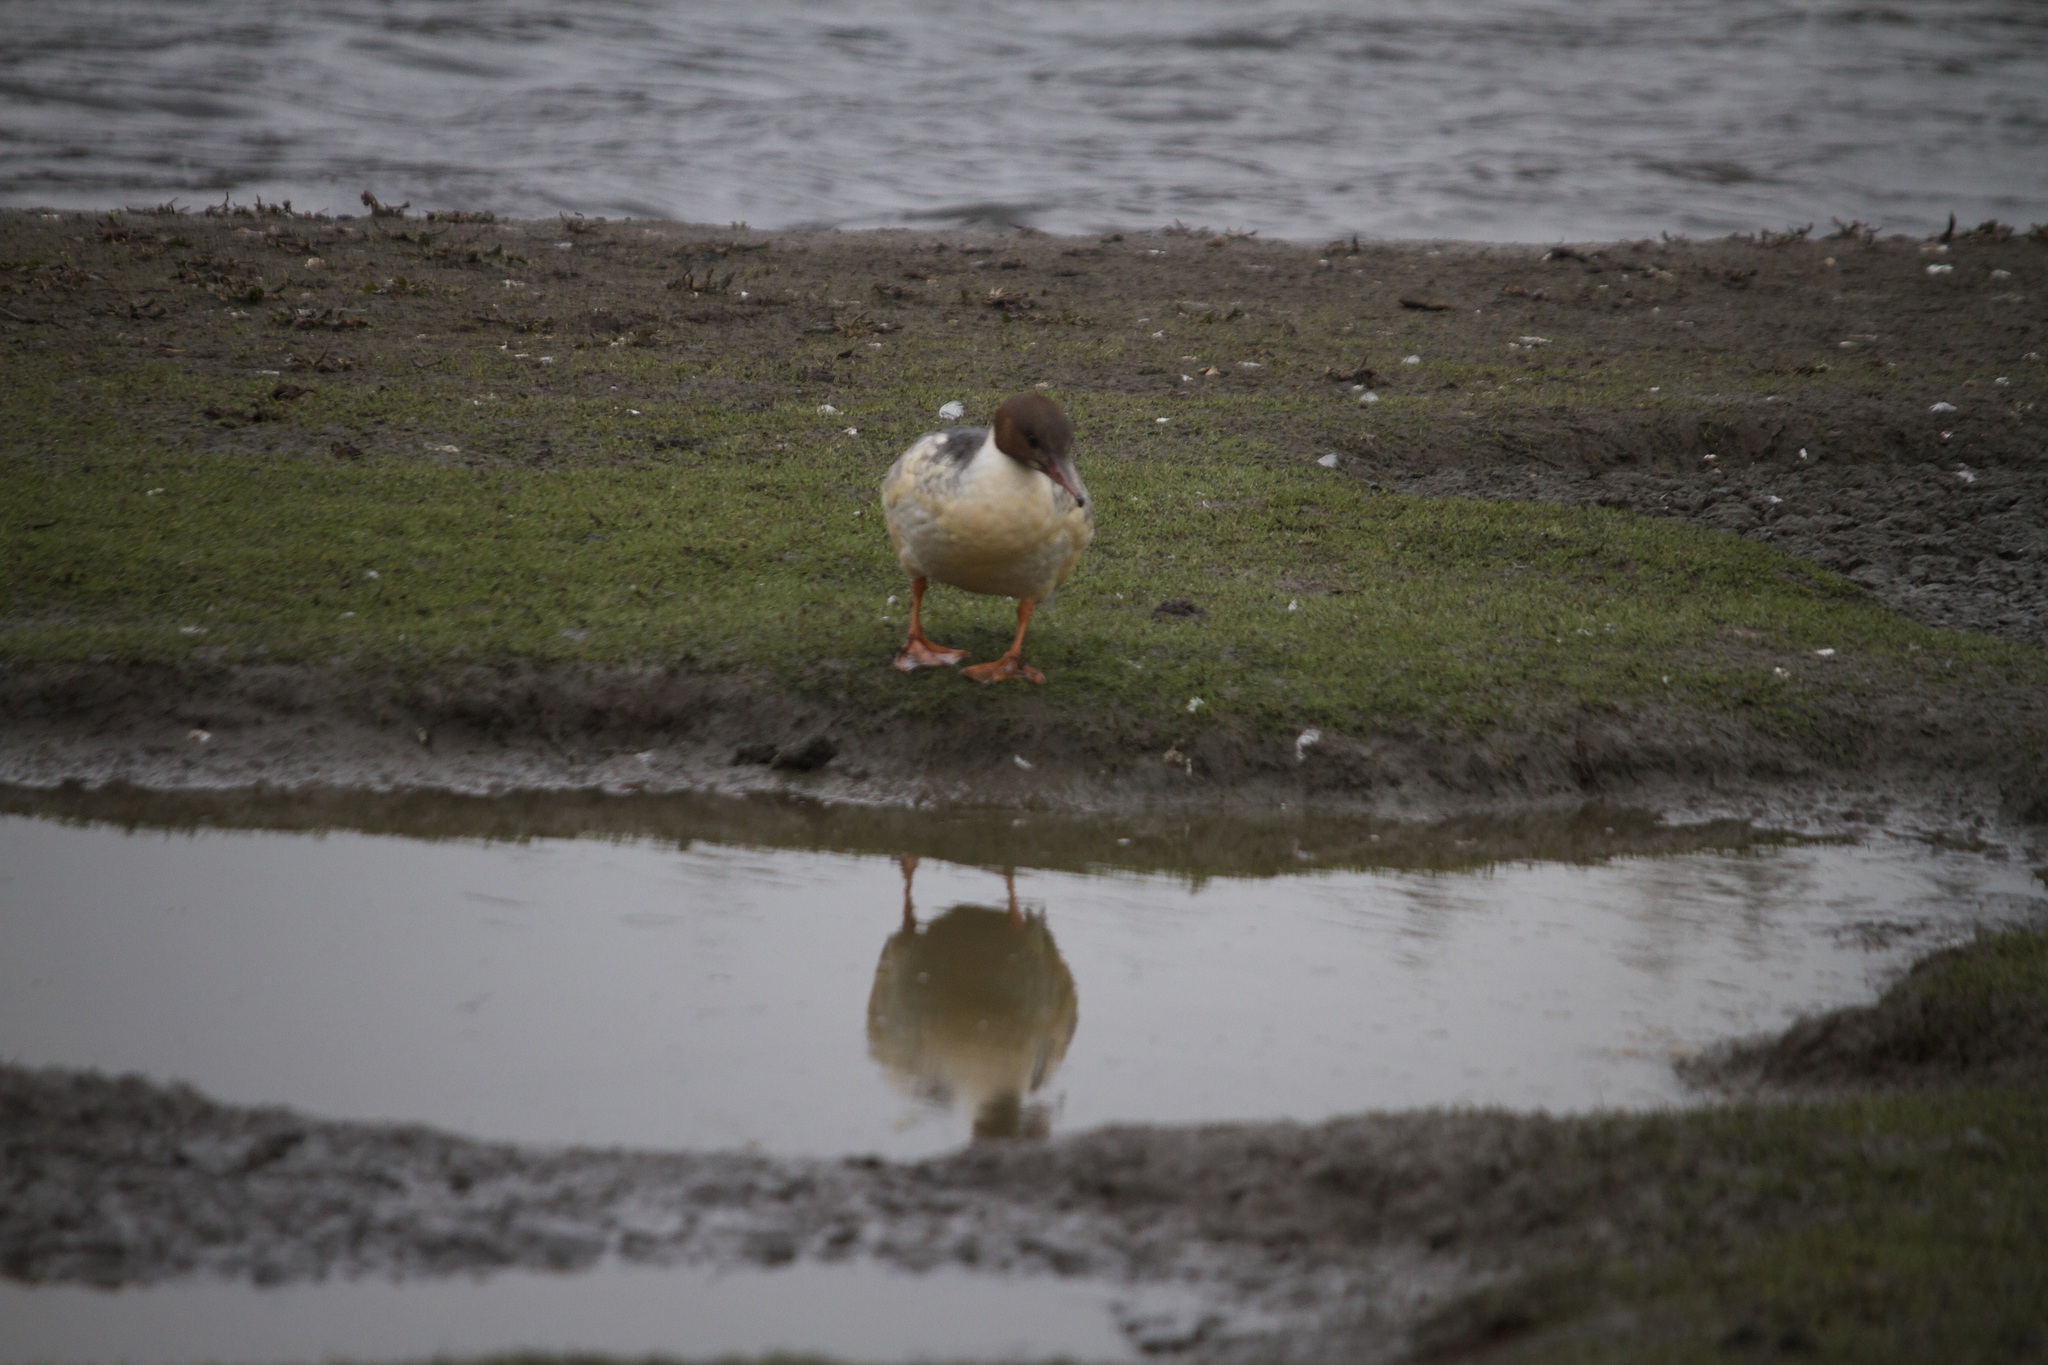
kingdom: Animalia
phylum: Chordata
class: Aves
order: Anseriformes
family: Anatidae
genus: Mergus
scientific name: Mergus merganser
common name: Common merganser
